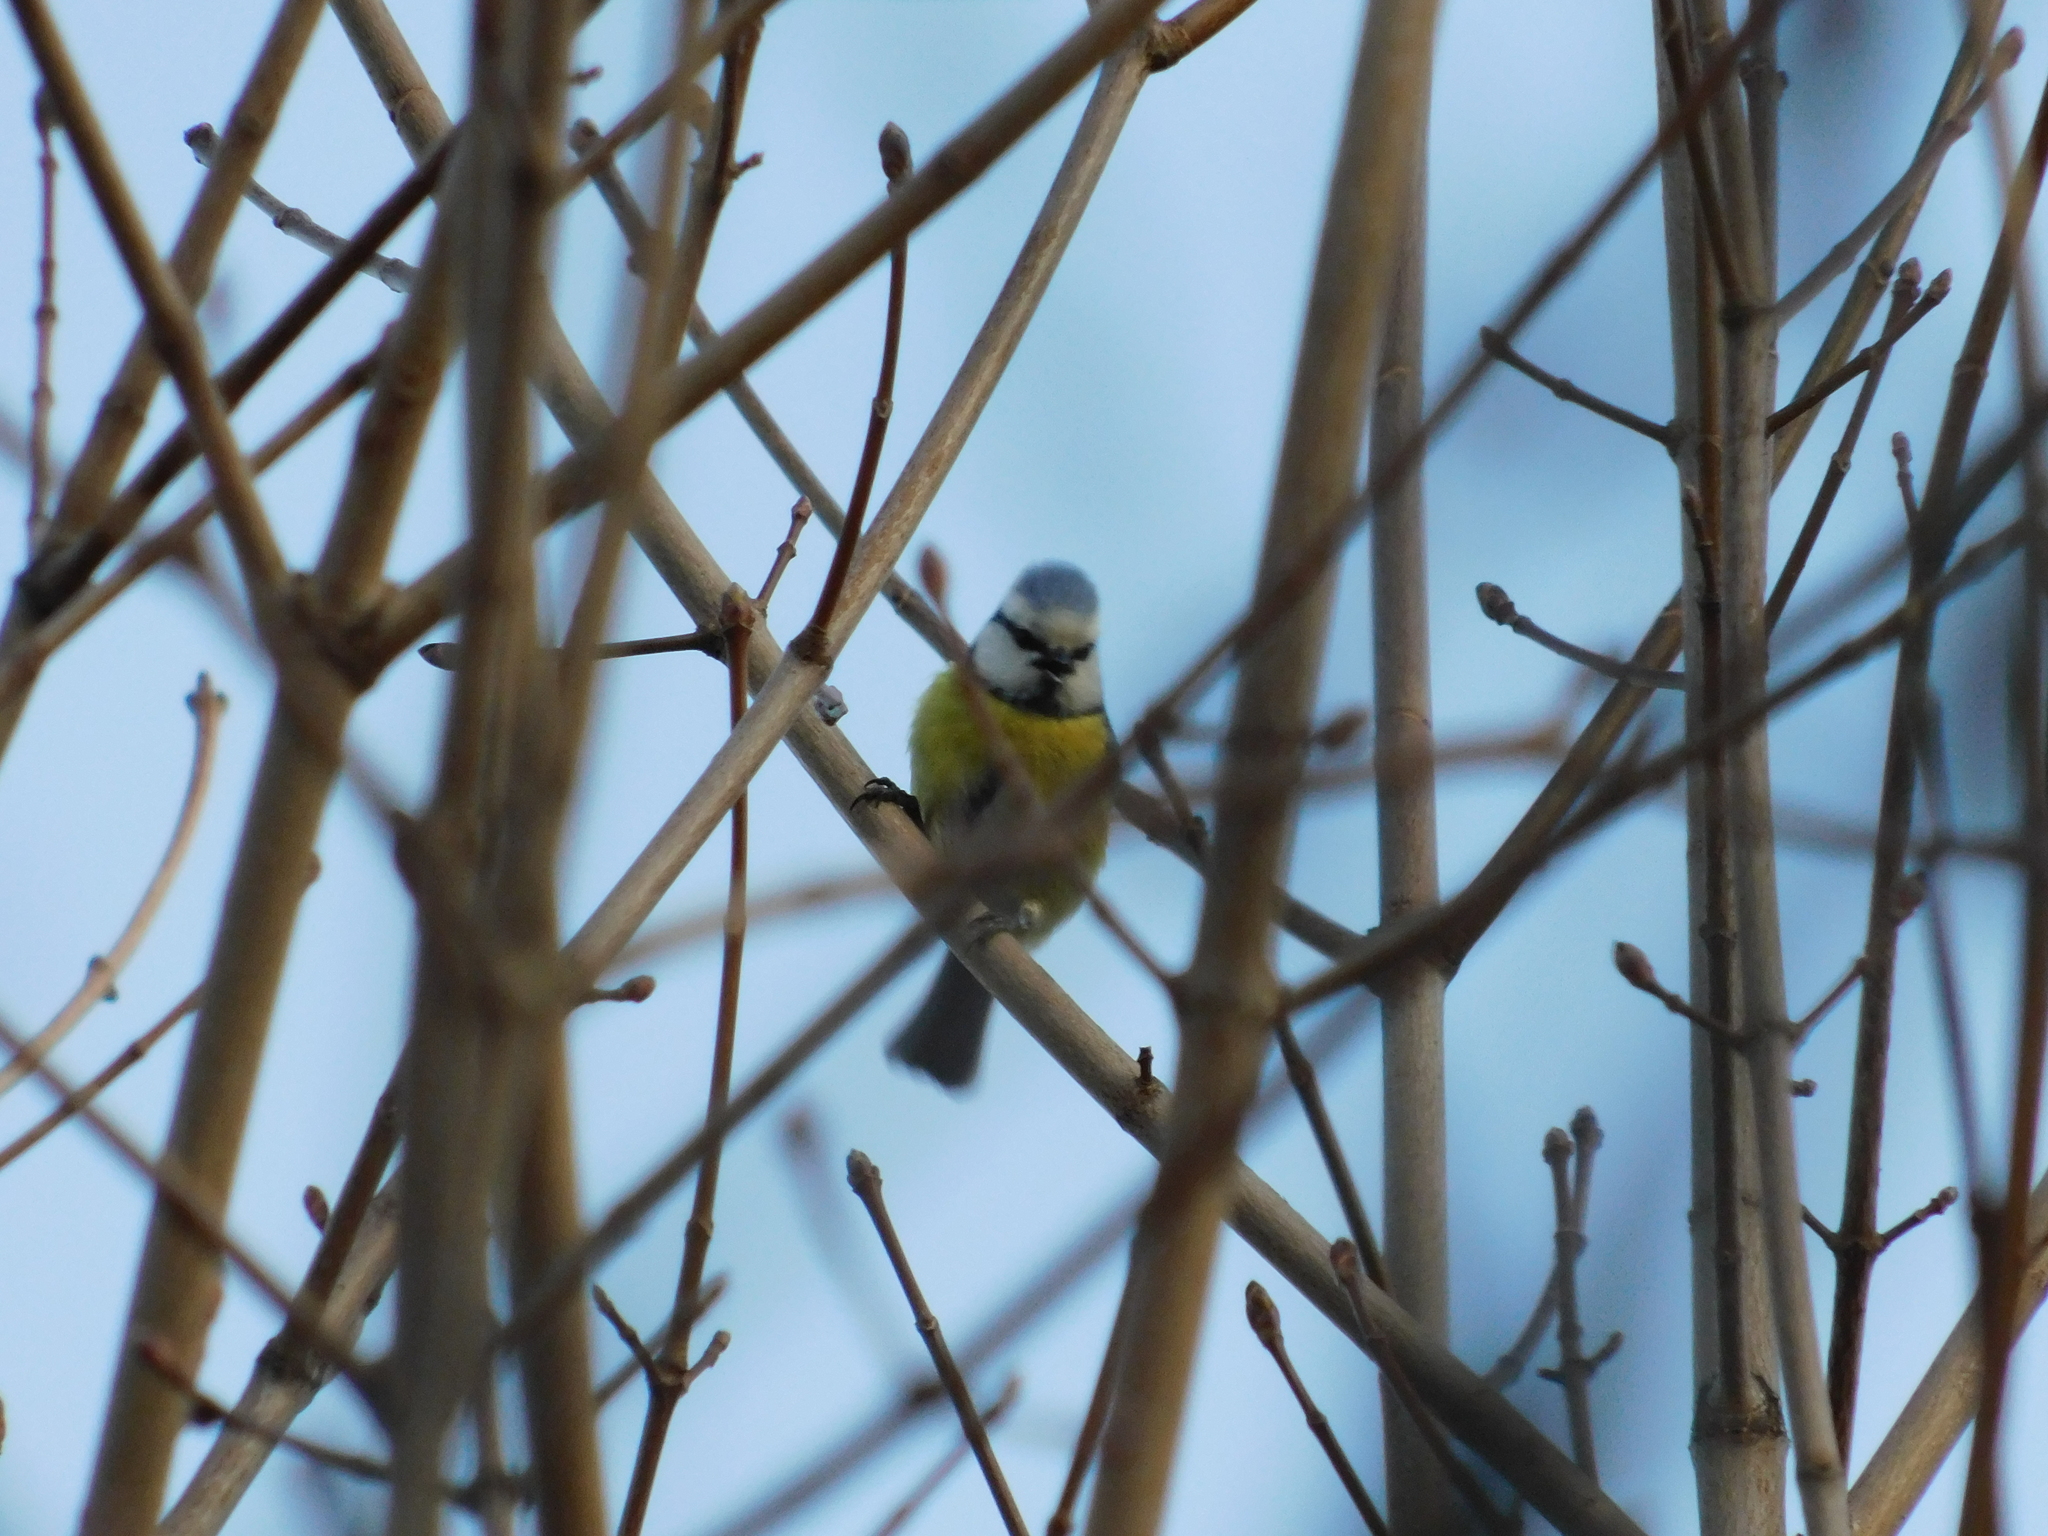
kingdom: Animalia
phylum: Chordata
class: Aves
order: Passeriformes
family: Paridae
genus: Cyanistes
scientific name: Cyanistes caeruleus
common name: Eurasian blue tit
